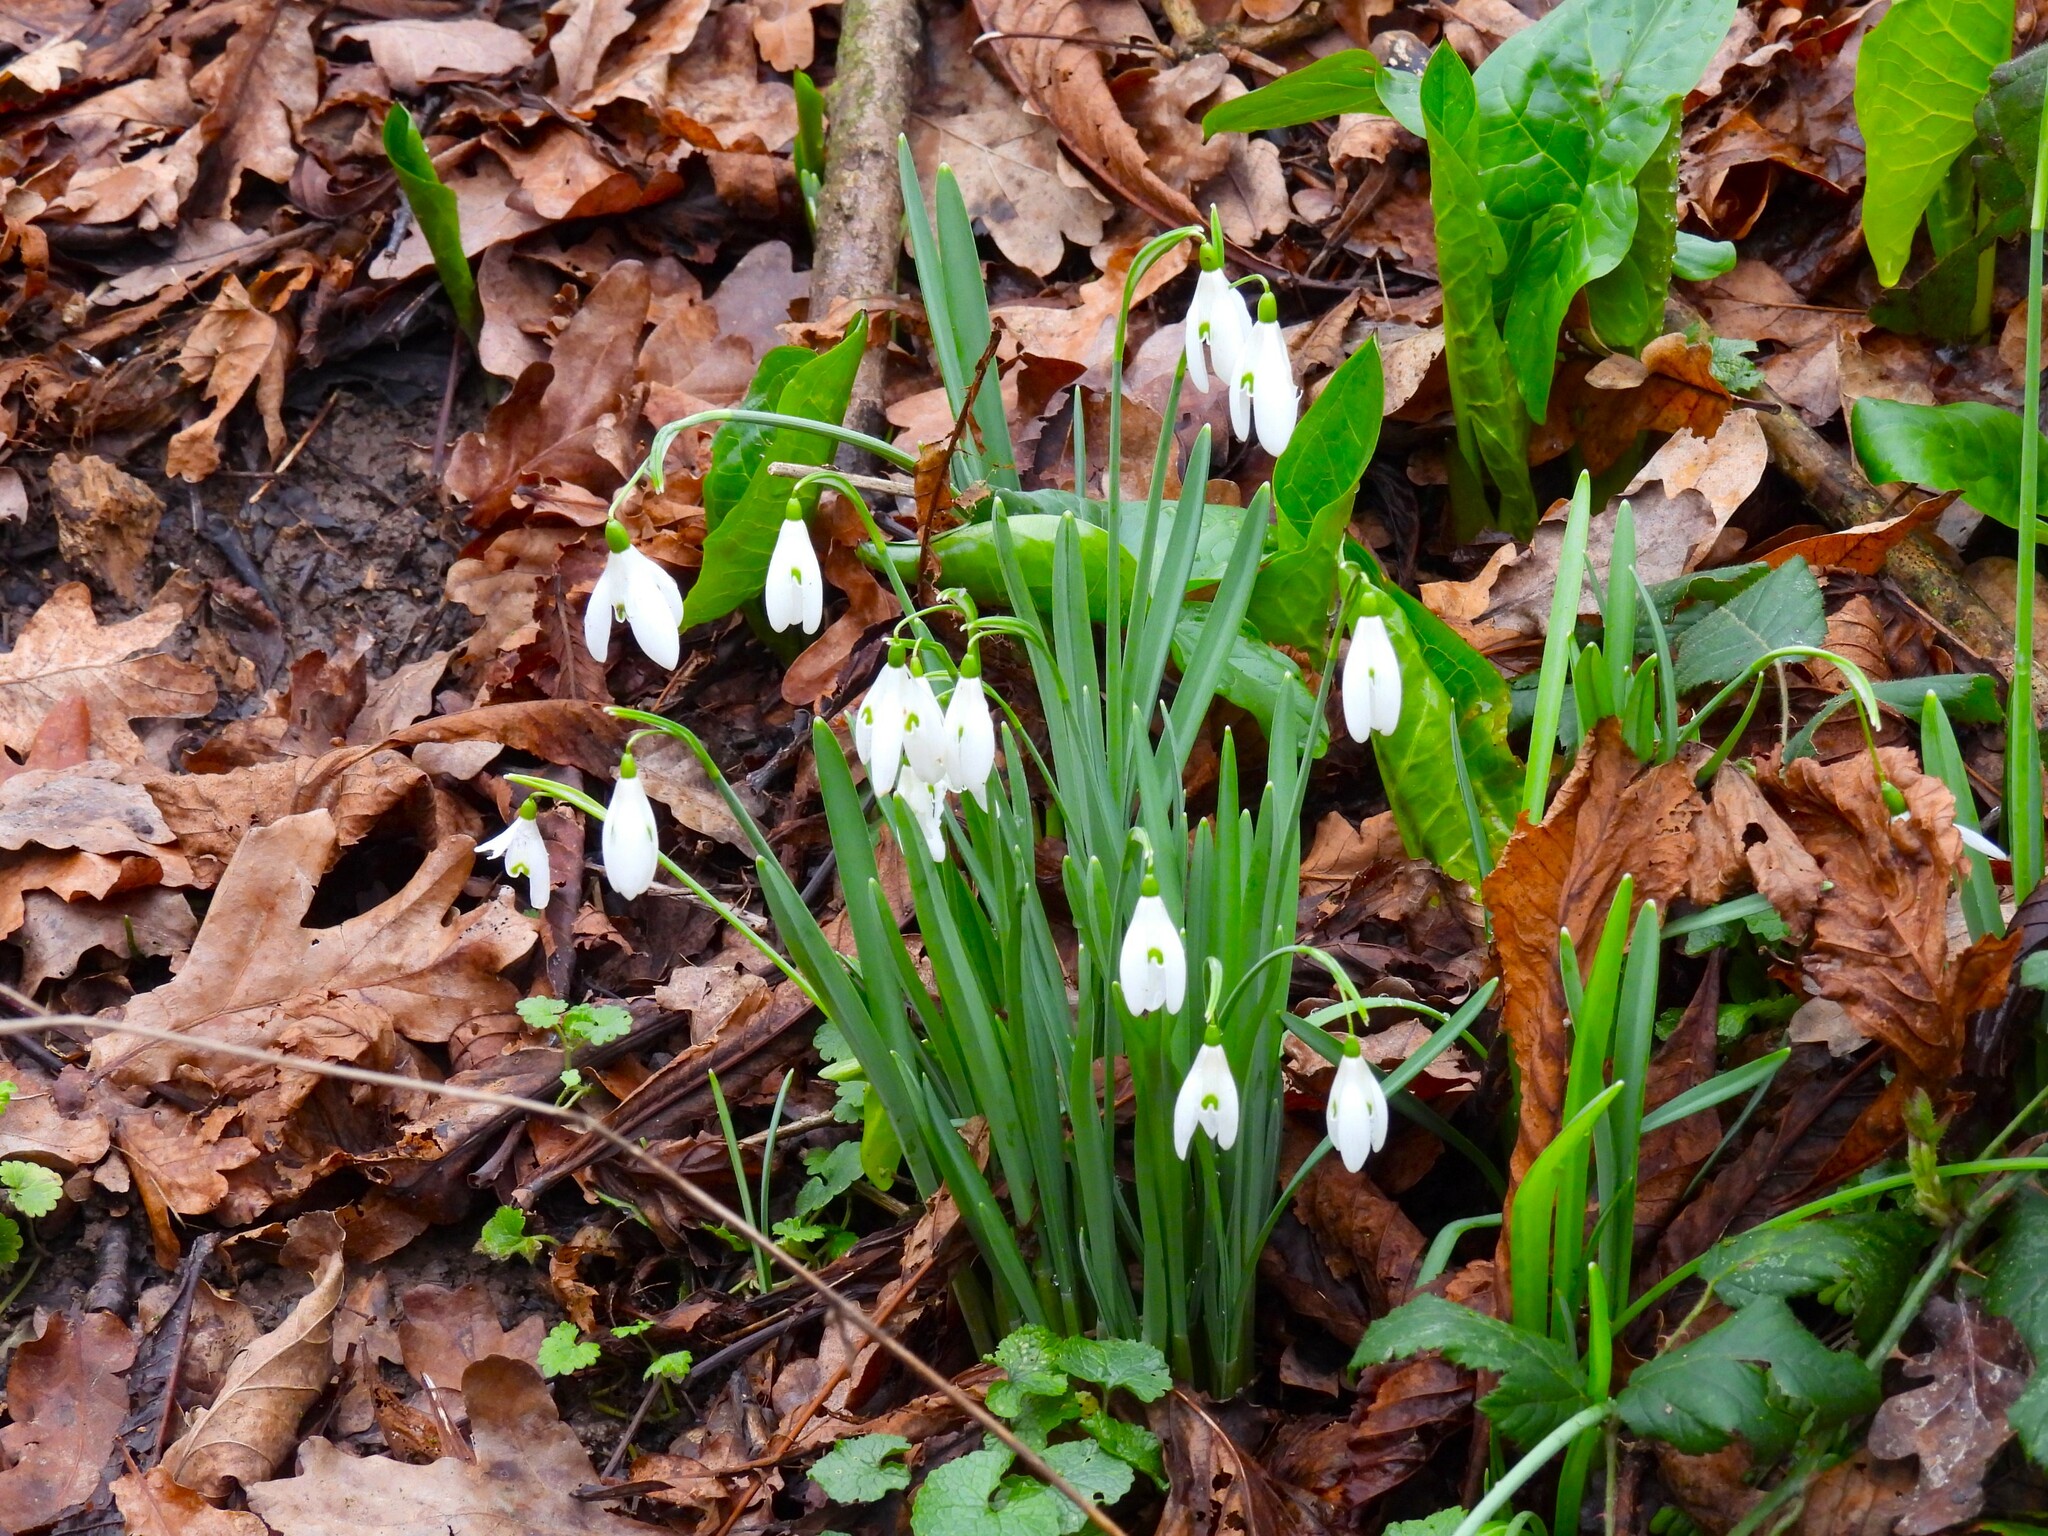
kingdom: Plantae
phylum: Tracheophyta
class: Liliopsida
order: Asparagales
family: Amaryllidaceae
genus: Galanthus
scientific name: Galanthus nivalis
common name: Snowdrop
